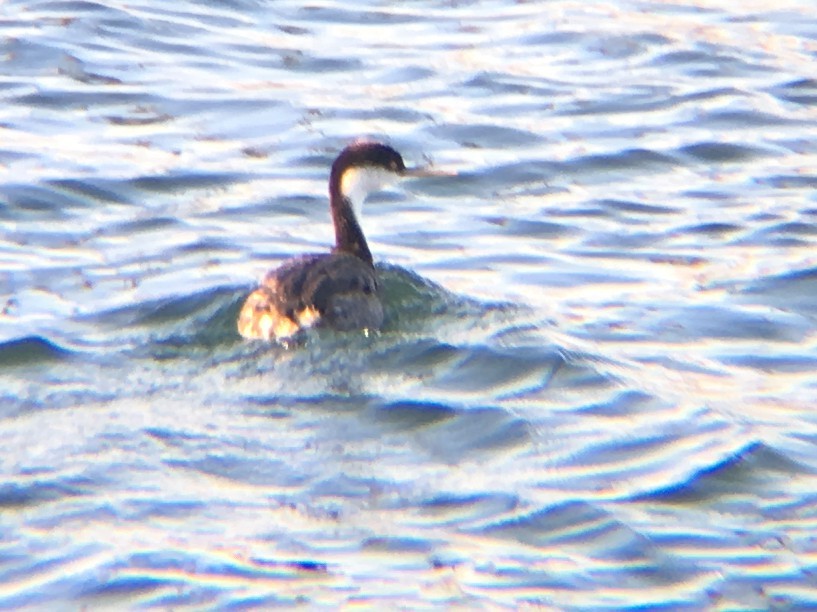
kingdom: Animalia
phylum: Chordata
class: Aves
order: Podicipediformes
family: Podicipedidae
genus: Aechmophorus
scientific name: Aechmophorus occidentalis
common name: Western grebe
